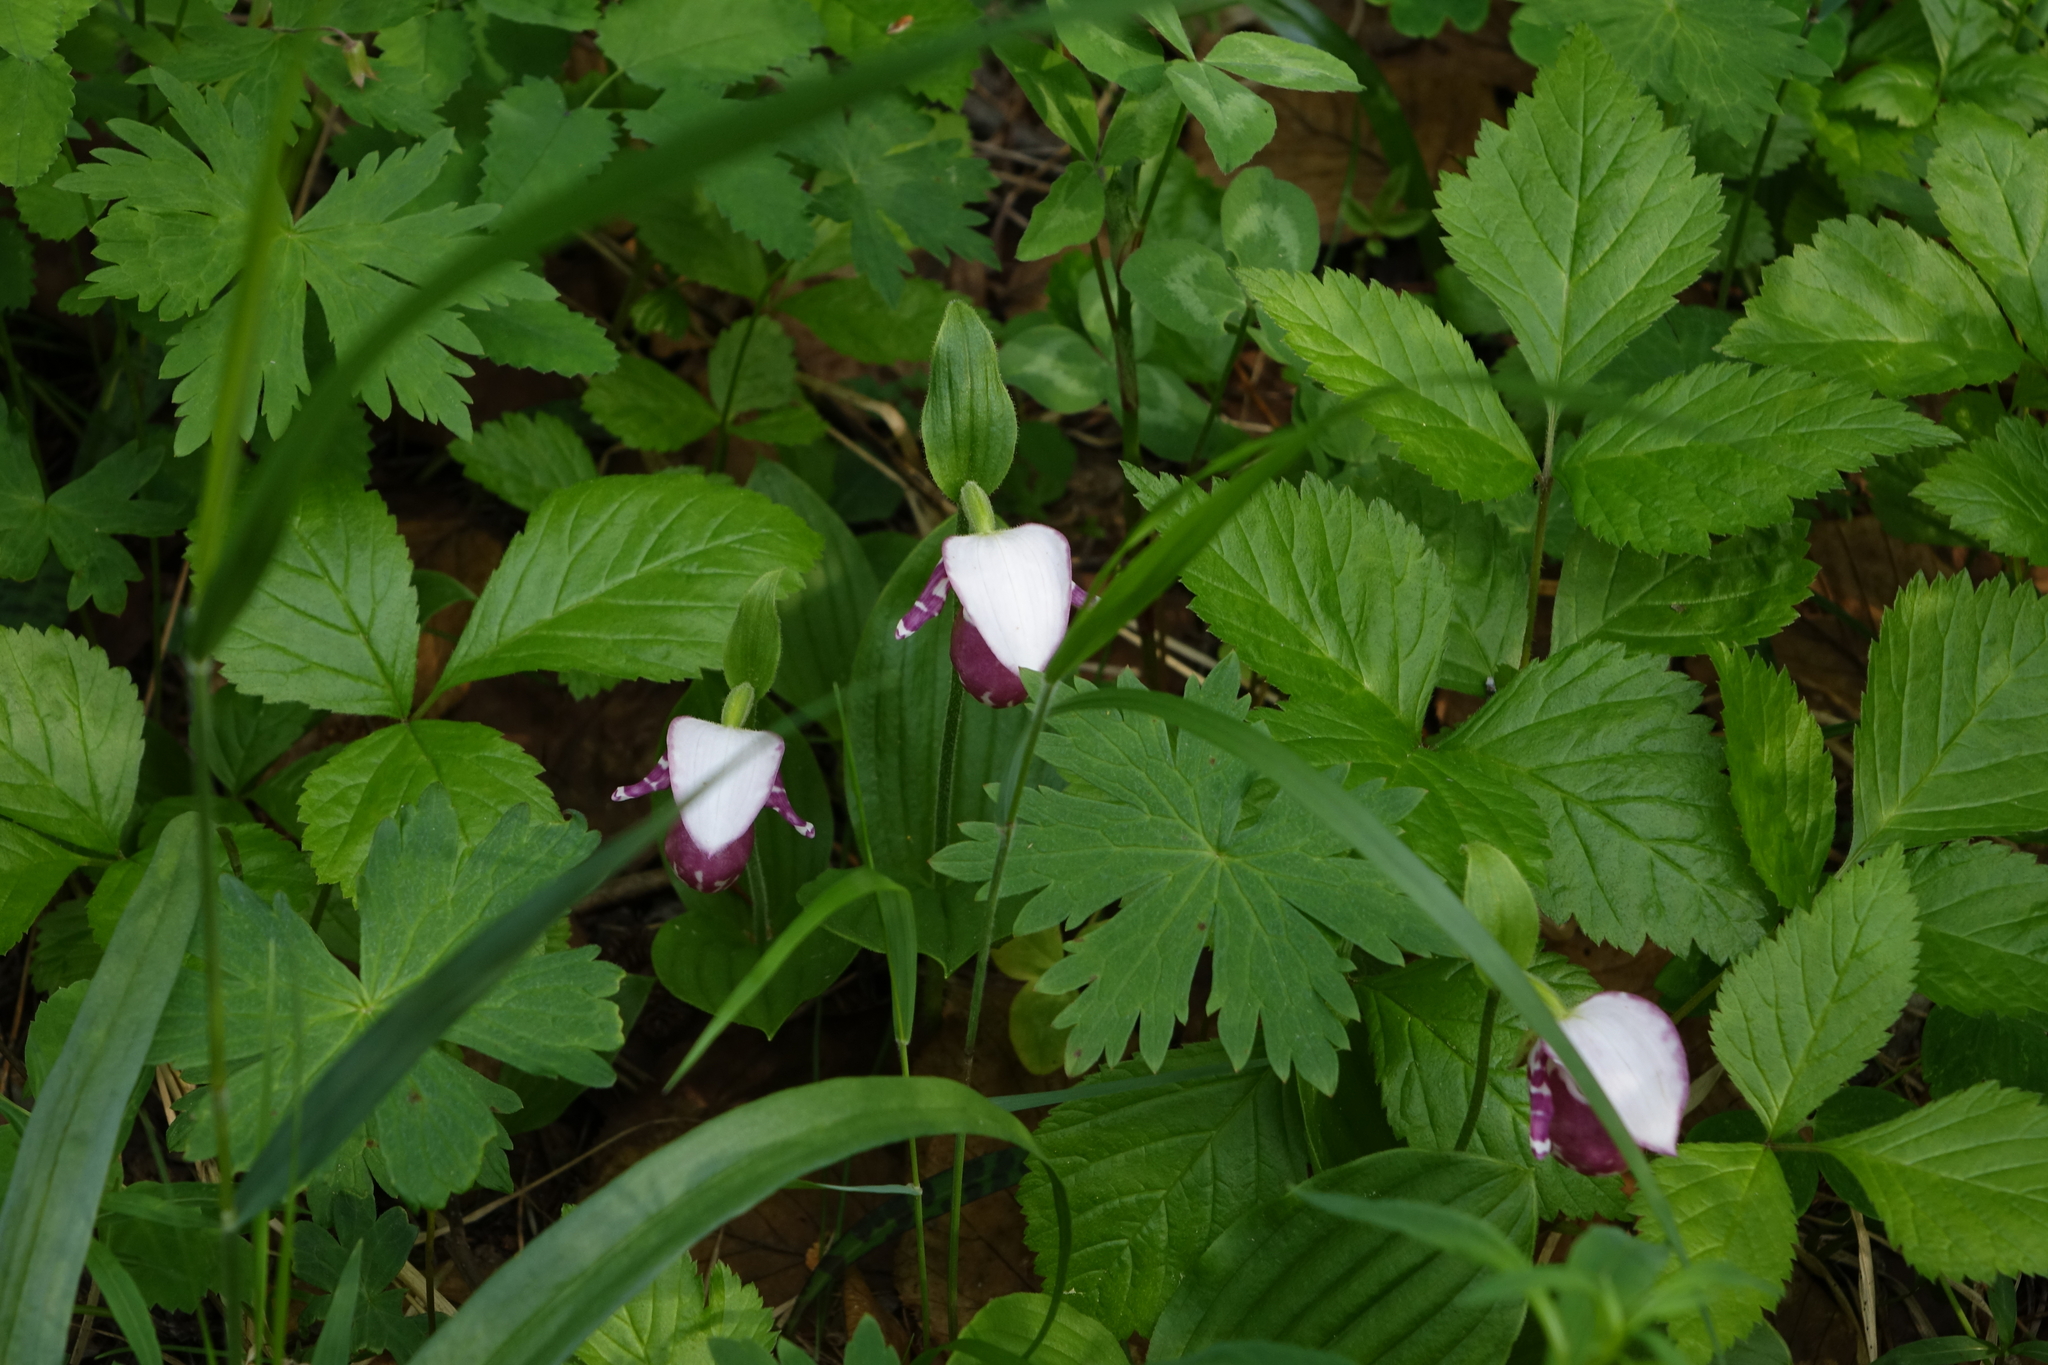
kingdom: Plantae
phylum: Tracheophyta
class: Liliopsida
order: Asparagales
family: Orchidaceae
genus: Cypripedium
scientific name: Cypripedium guttatum
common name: Pink lady slipper
